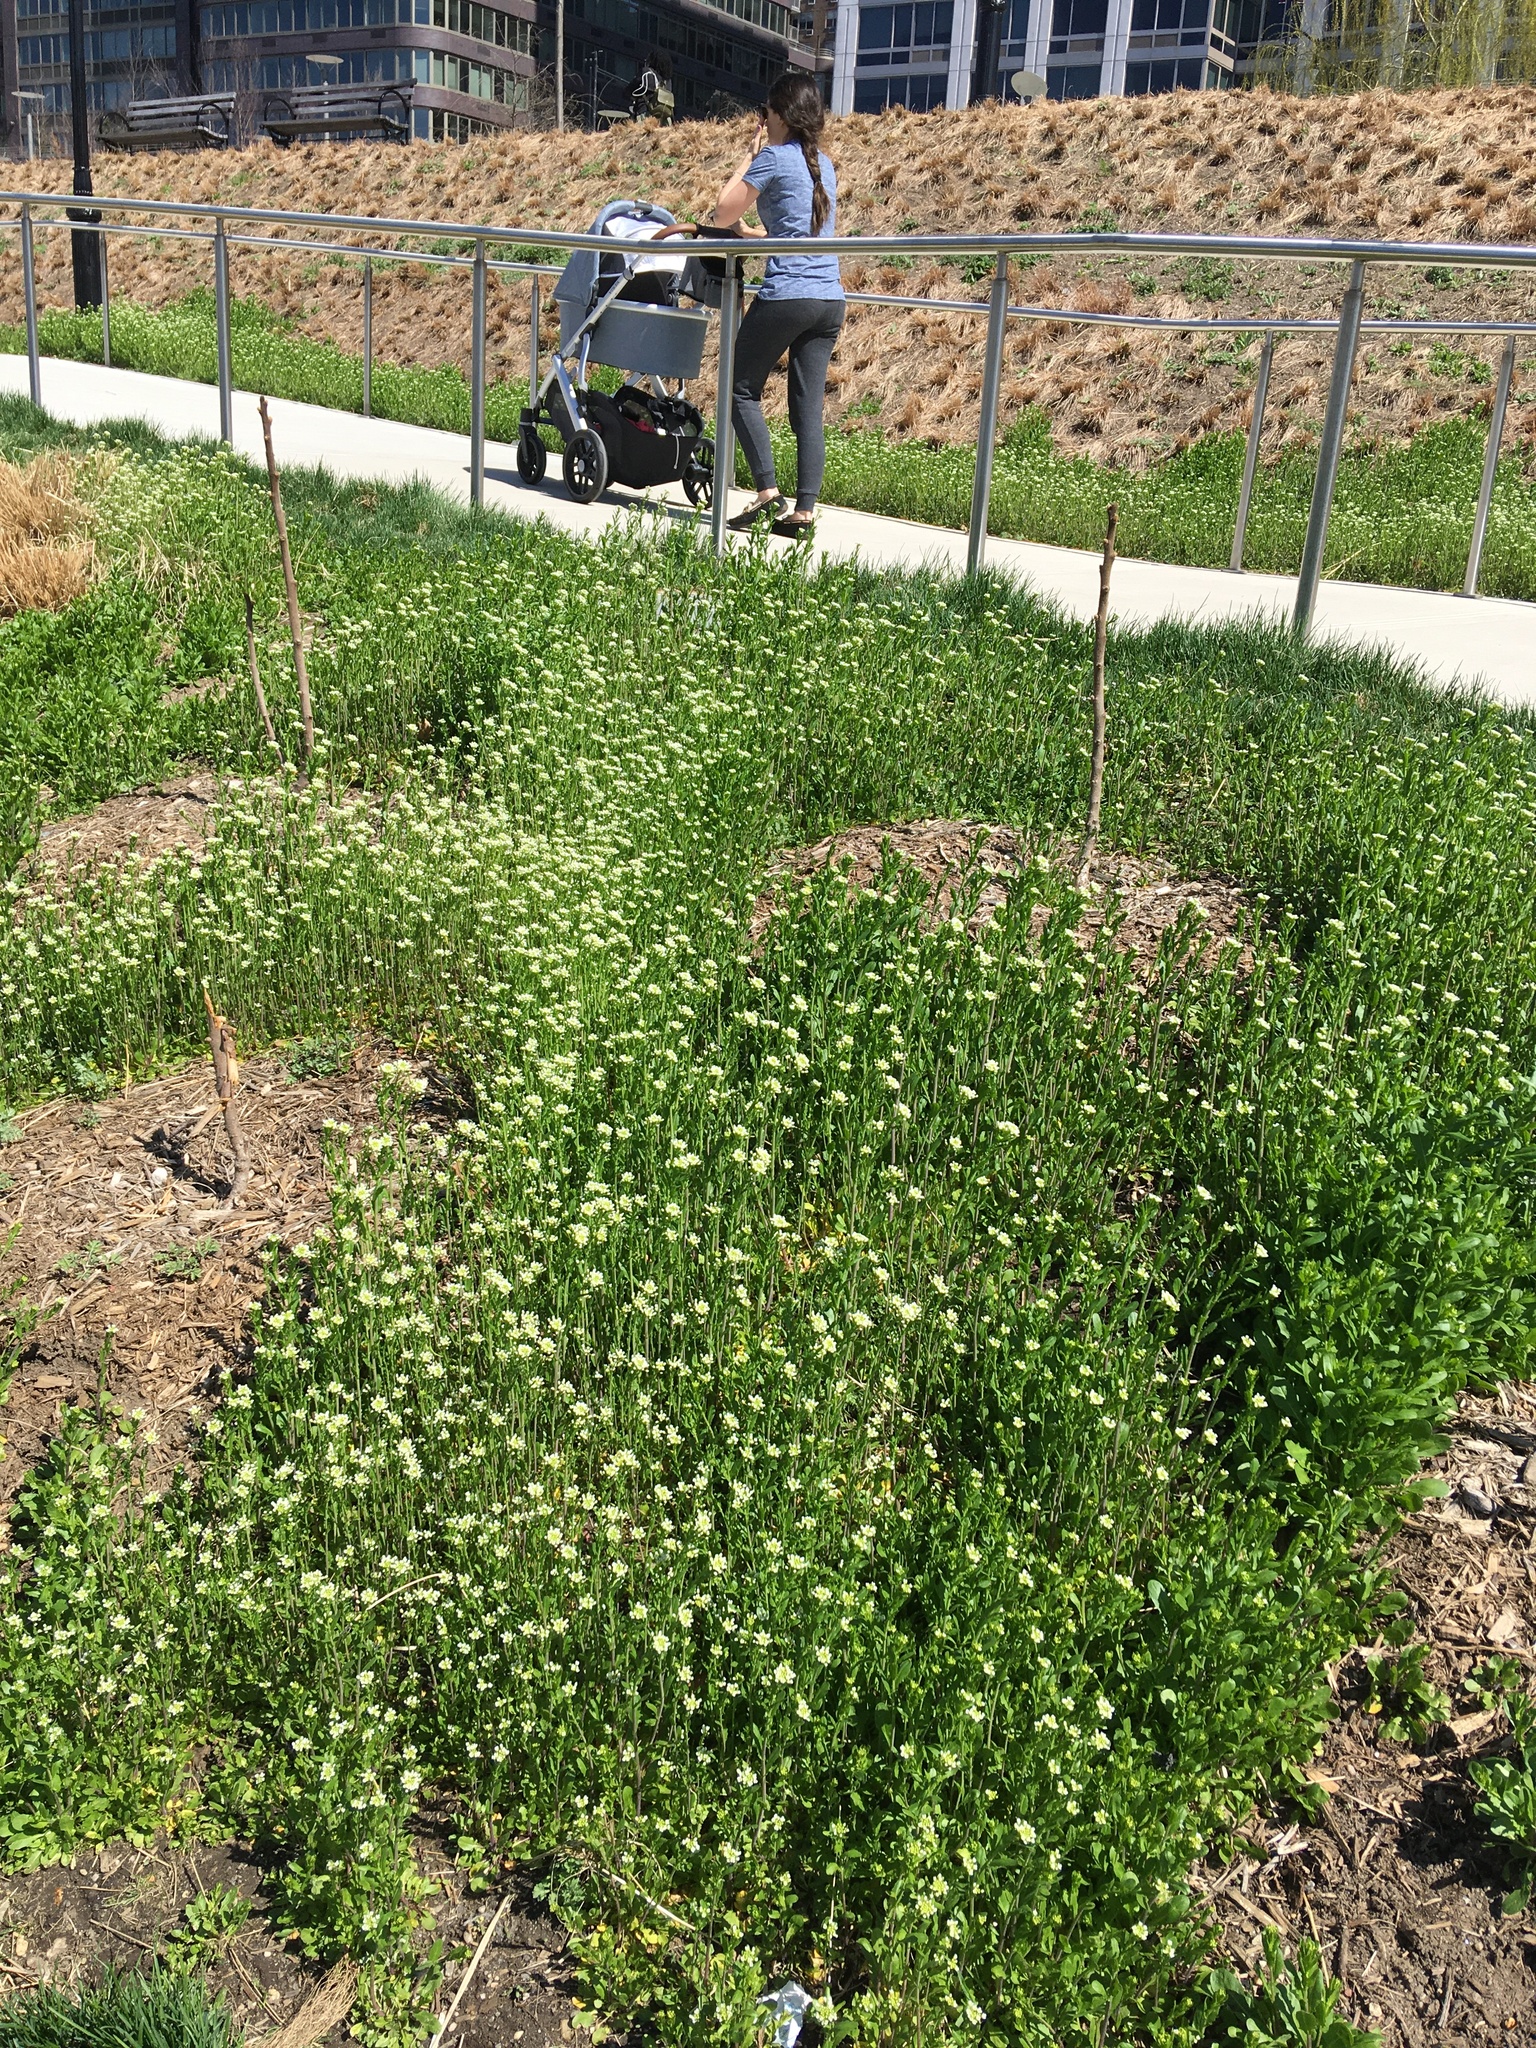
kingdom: Plantae
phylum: Tracheophyta
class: Magnoliopsida
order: Brassicales
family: Brassicaceae
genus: Mummenhoffia
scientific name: Mummenhoffia alliacea
